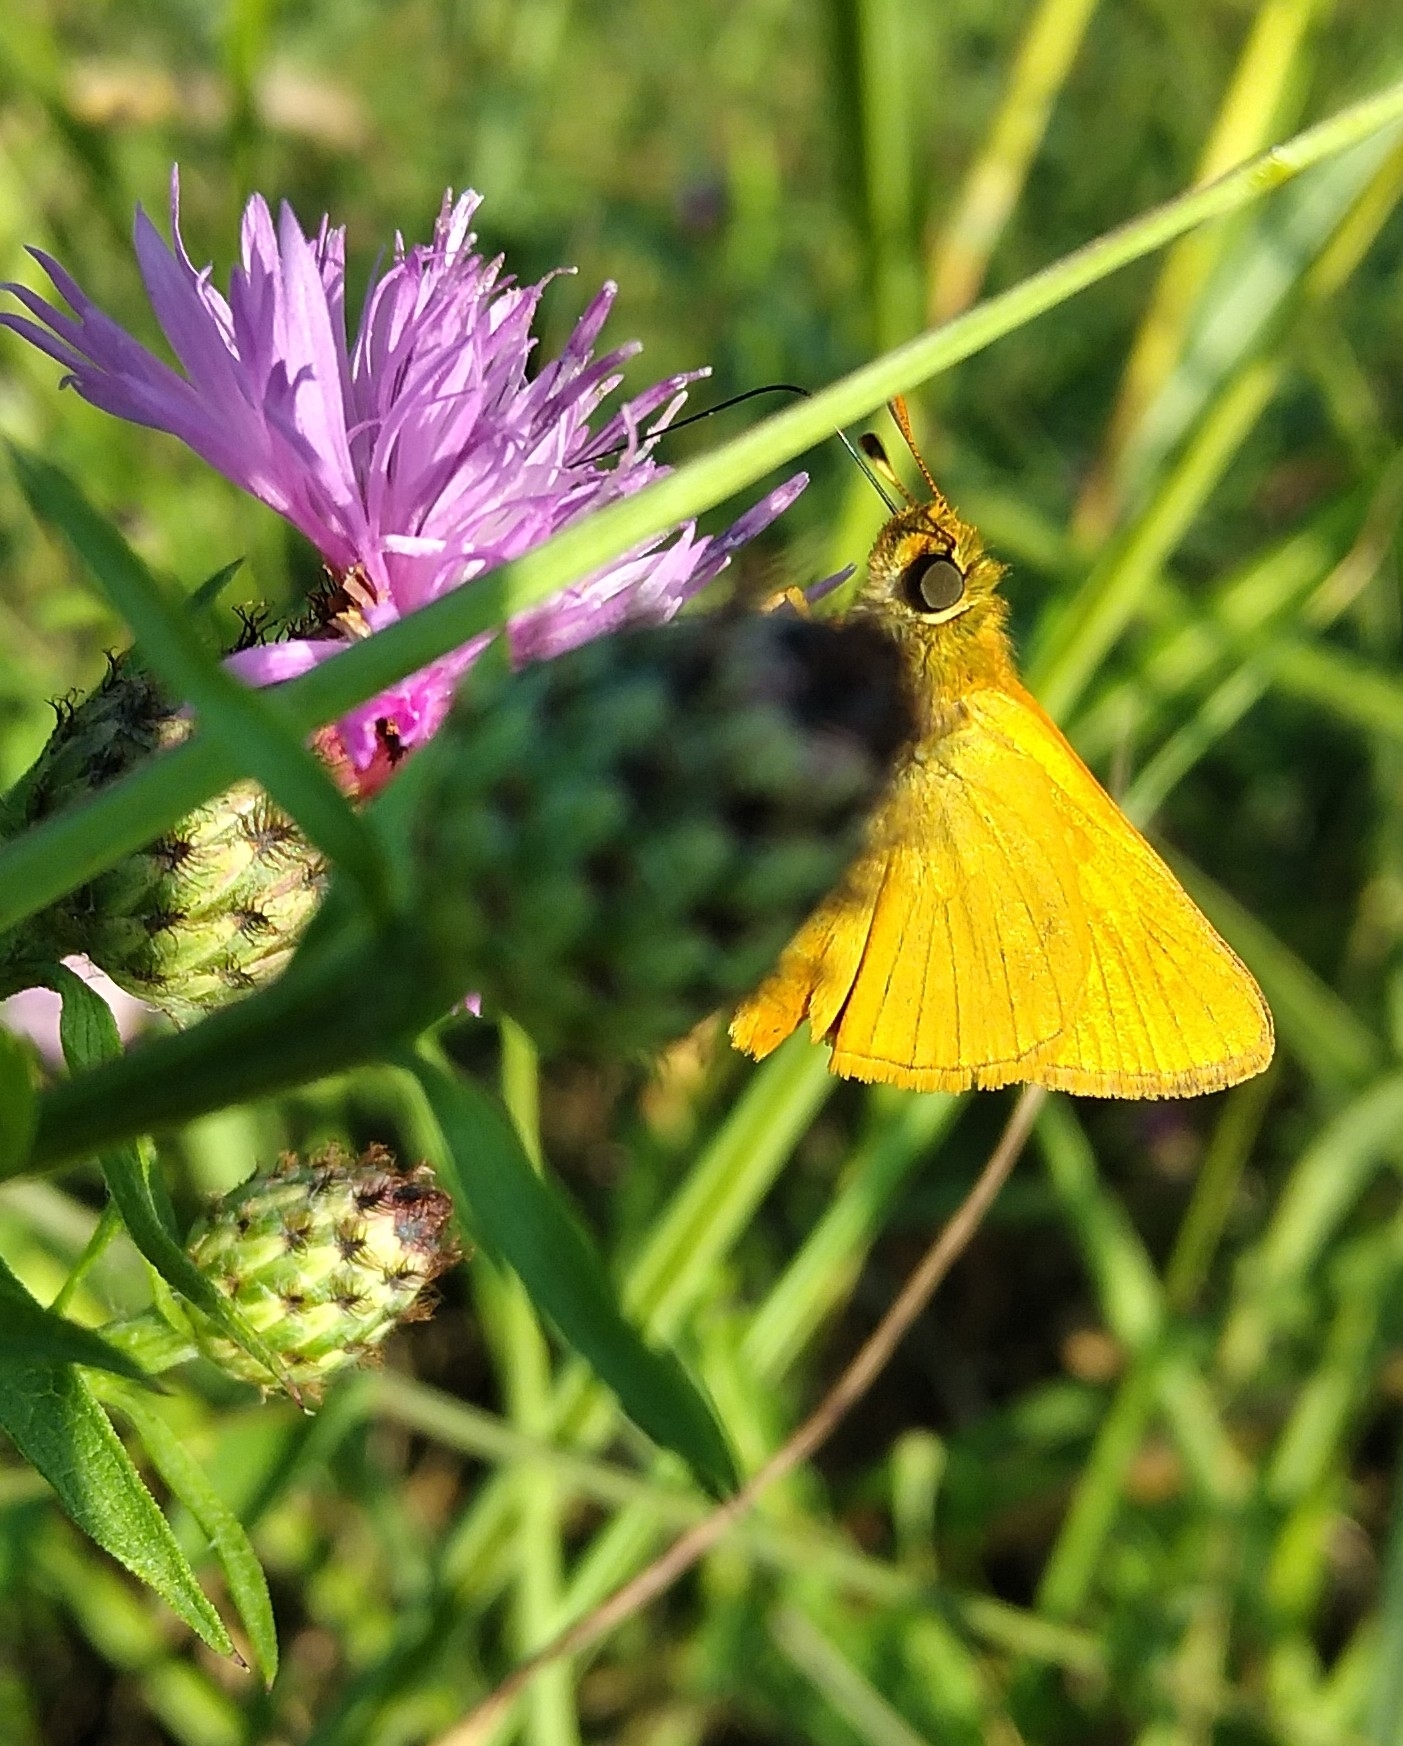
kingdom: Animalia
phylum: Arthropoda
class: Insecta
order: Lepidoptera
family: Hesperiidae
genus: Ochlodes
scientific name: Ochlodes venata
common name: Large skipper
